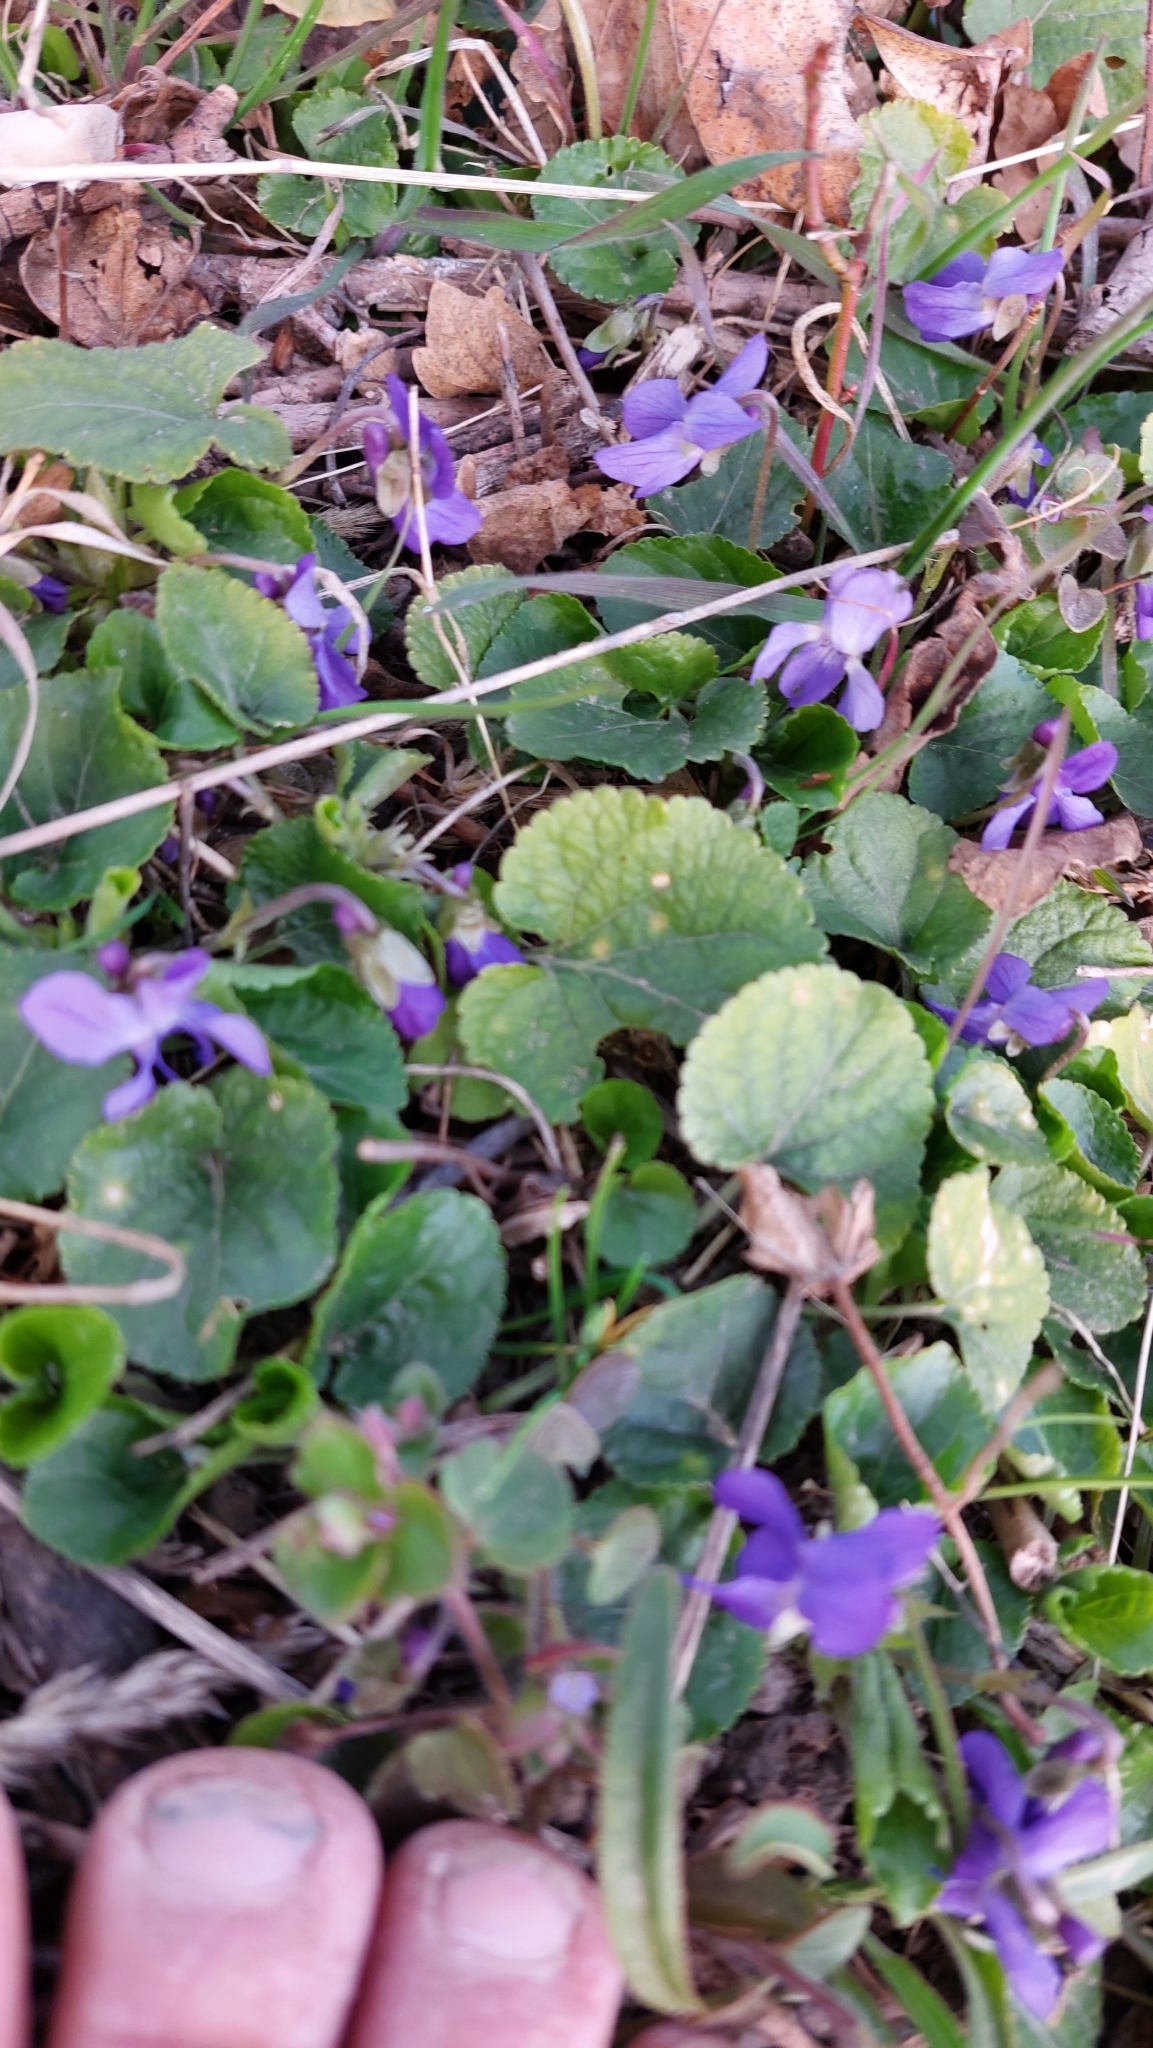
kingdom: Plantae
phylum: Tracheophyta
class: Magnoliopsida
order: Malpighiales
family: Violaceae
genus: Viola
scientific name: Viola odorata
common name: Sweet violet
